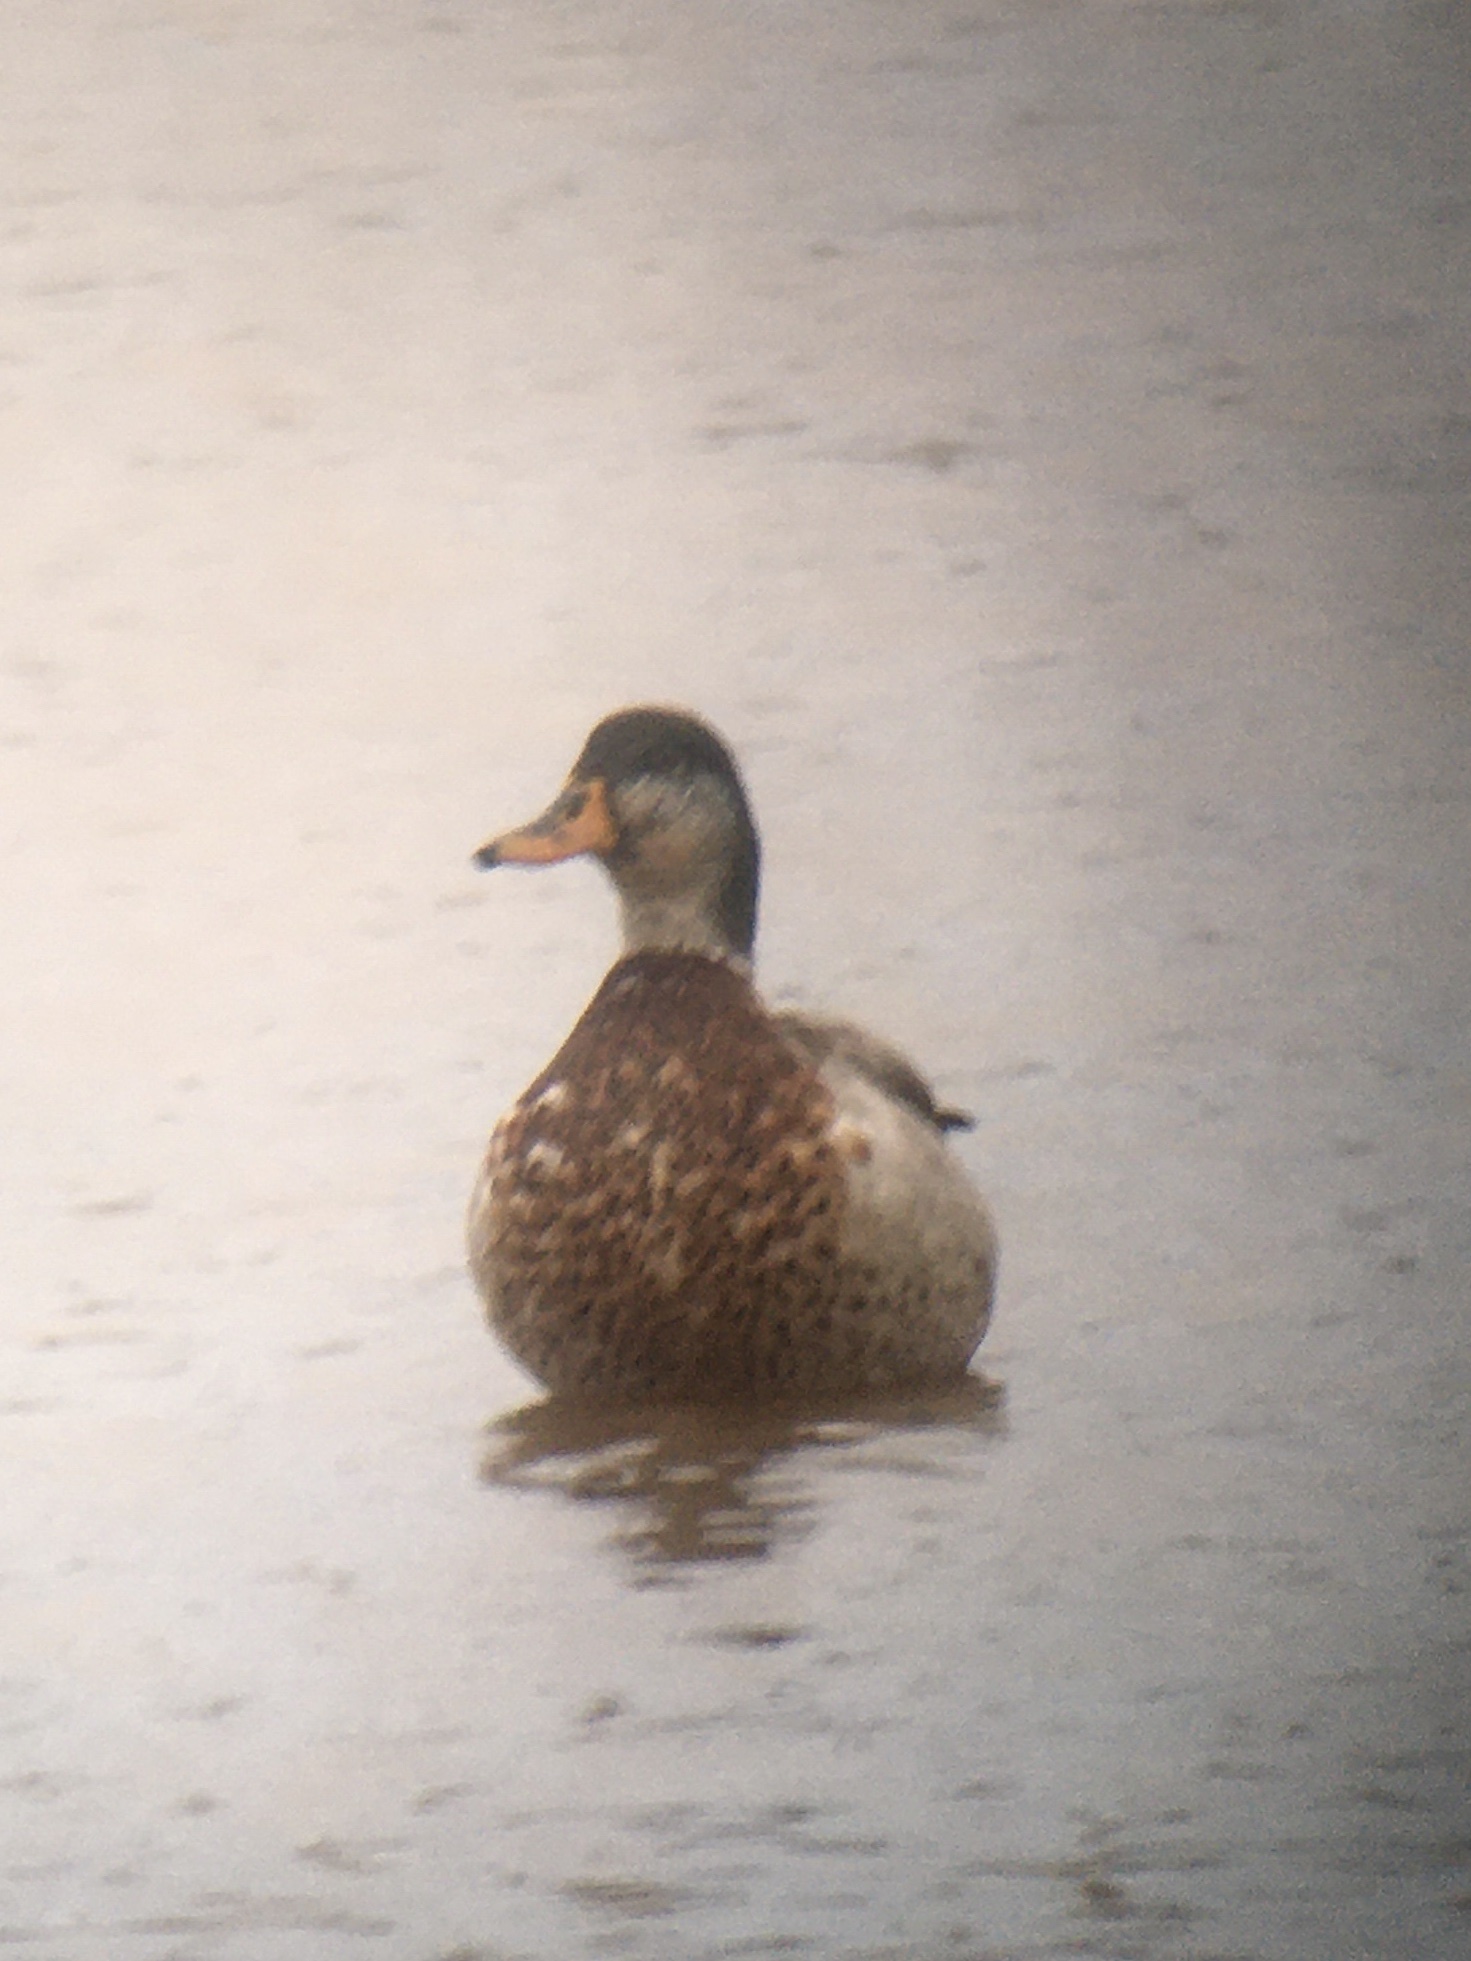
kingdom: Animalia
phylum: Chordata
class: Aves
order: Anseriformes
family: Anatidae
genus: Anas
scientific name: Anas platyrhynchos
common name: Mallard
